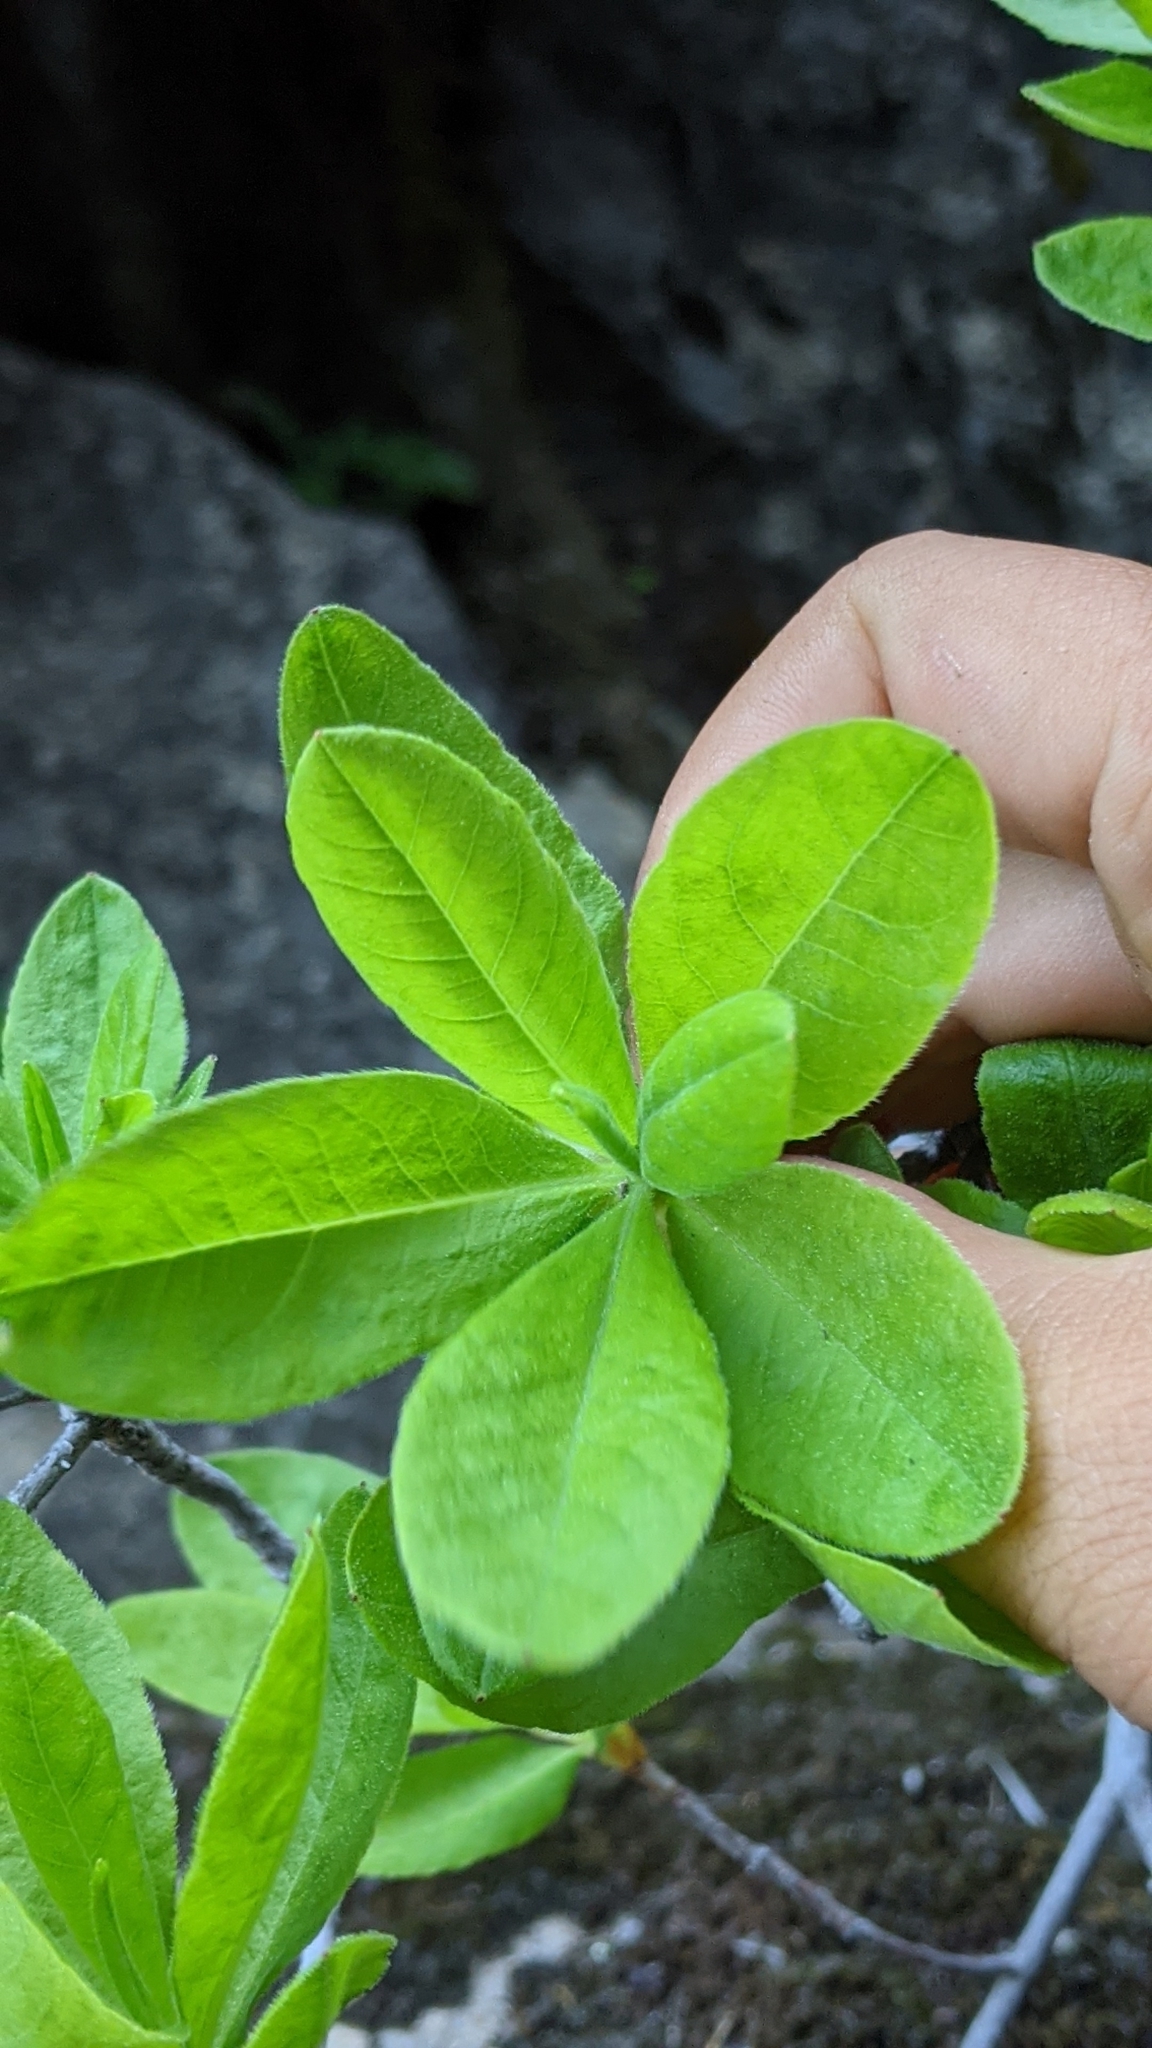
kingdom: Plantae
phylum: Tracheophyta
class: Magnoliopsida
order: Ericales
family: Ericaceae
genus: Rhododendron
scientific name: Rhododendron occidentale
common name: Western azalea
